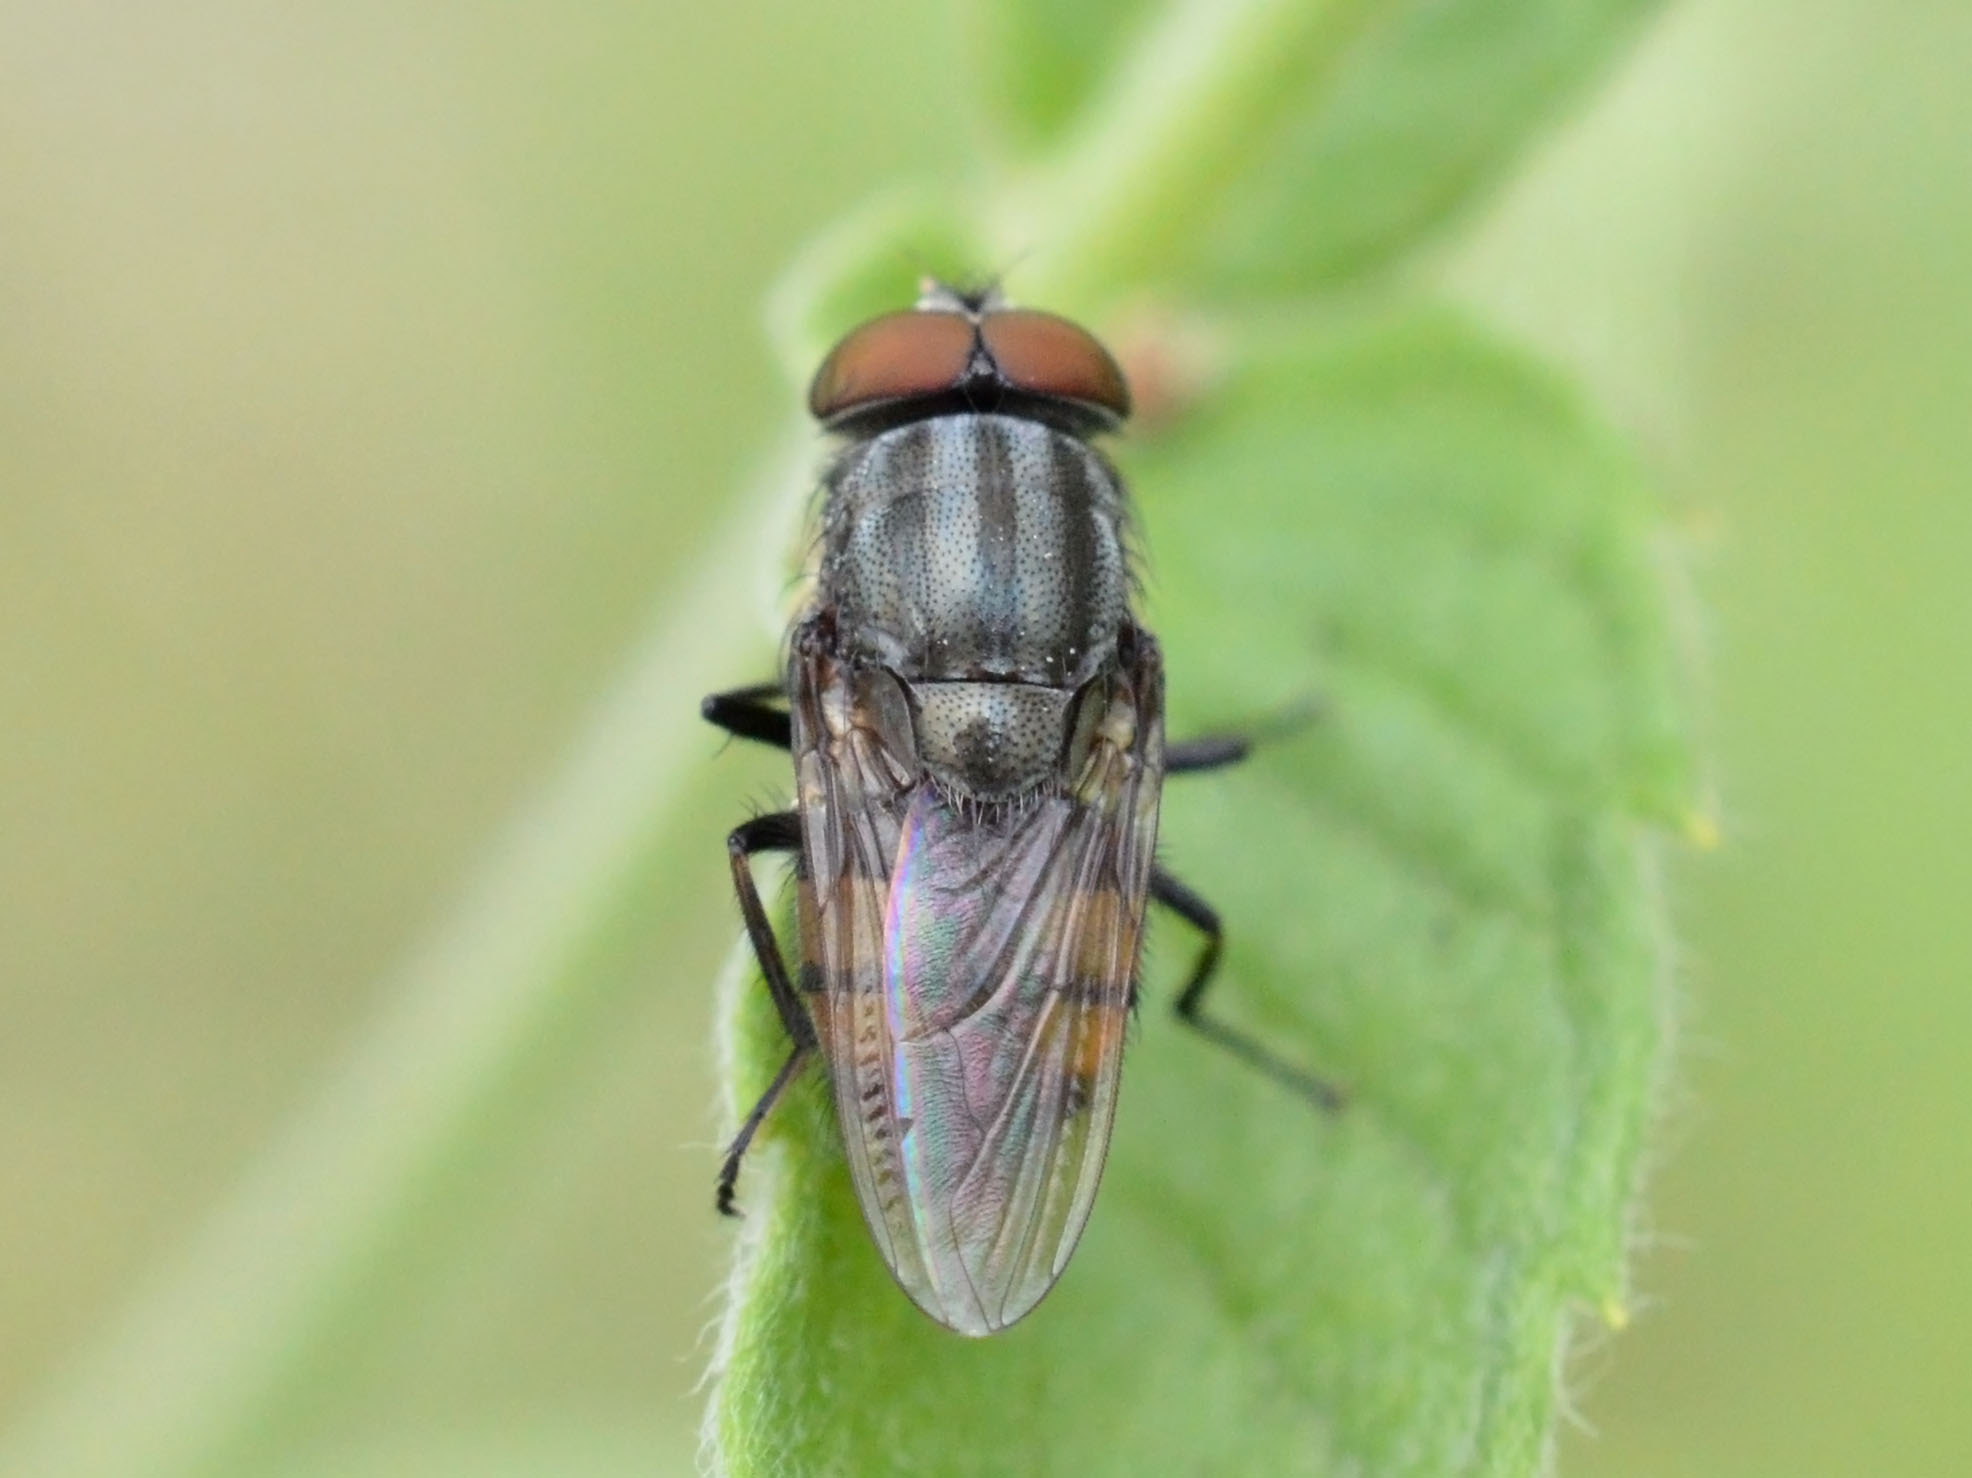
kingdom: Animalia
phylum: Arthropoda
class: Insecta
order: Diptera
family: Calliphoridae
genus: Stomorhina
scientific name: Stomorhina lunata
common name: Locust blowfly
